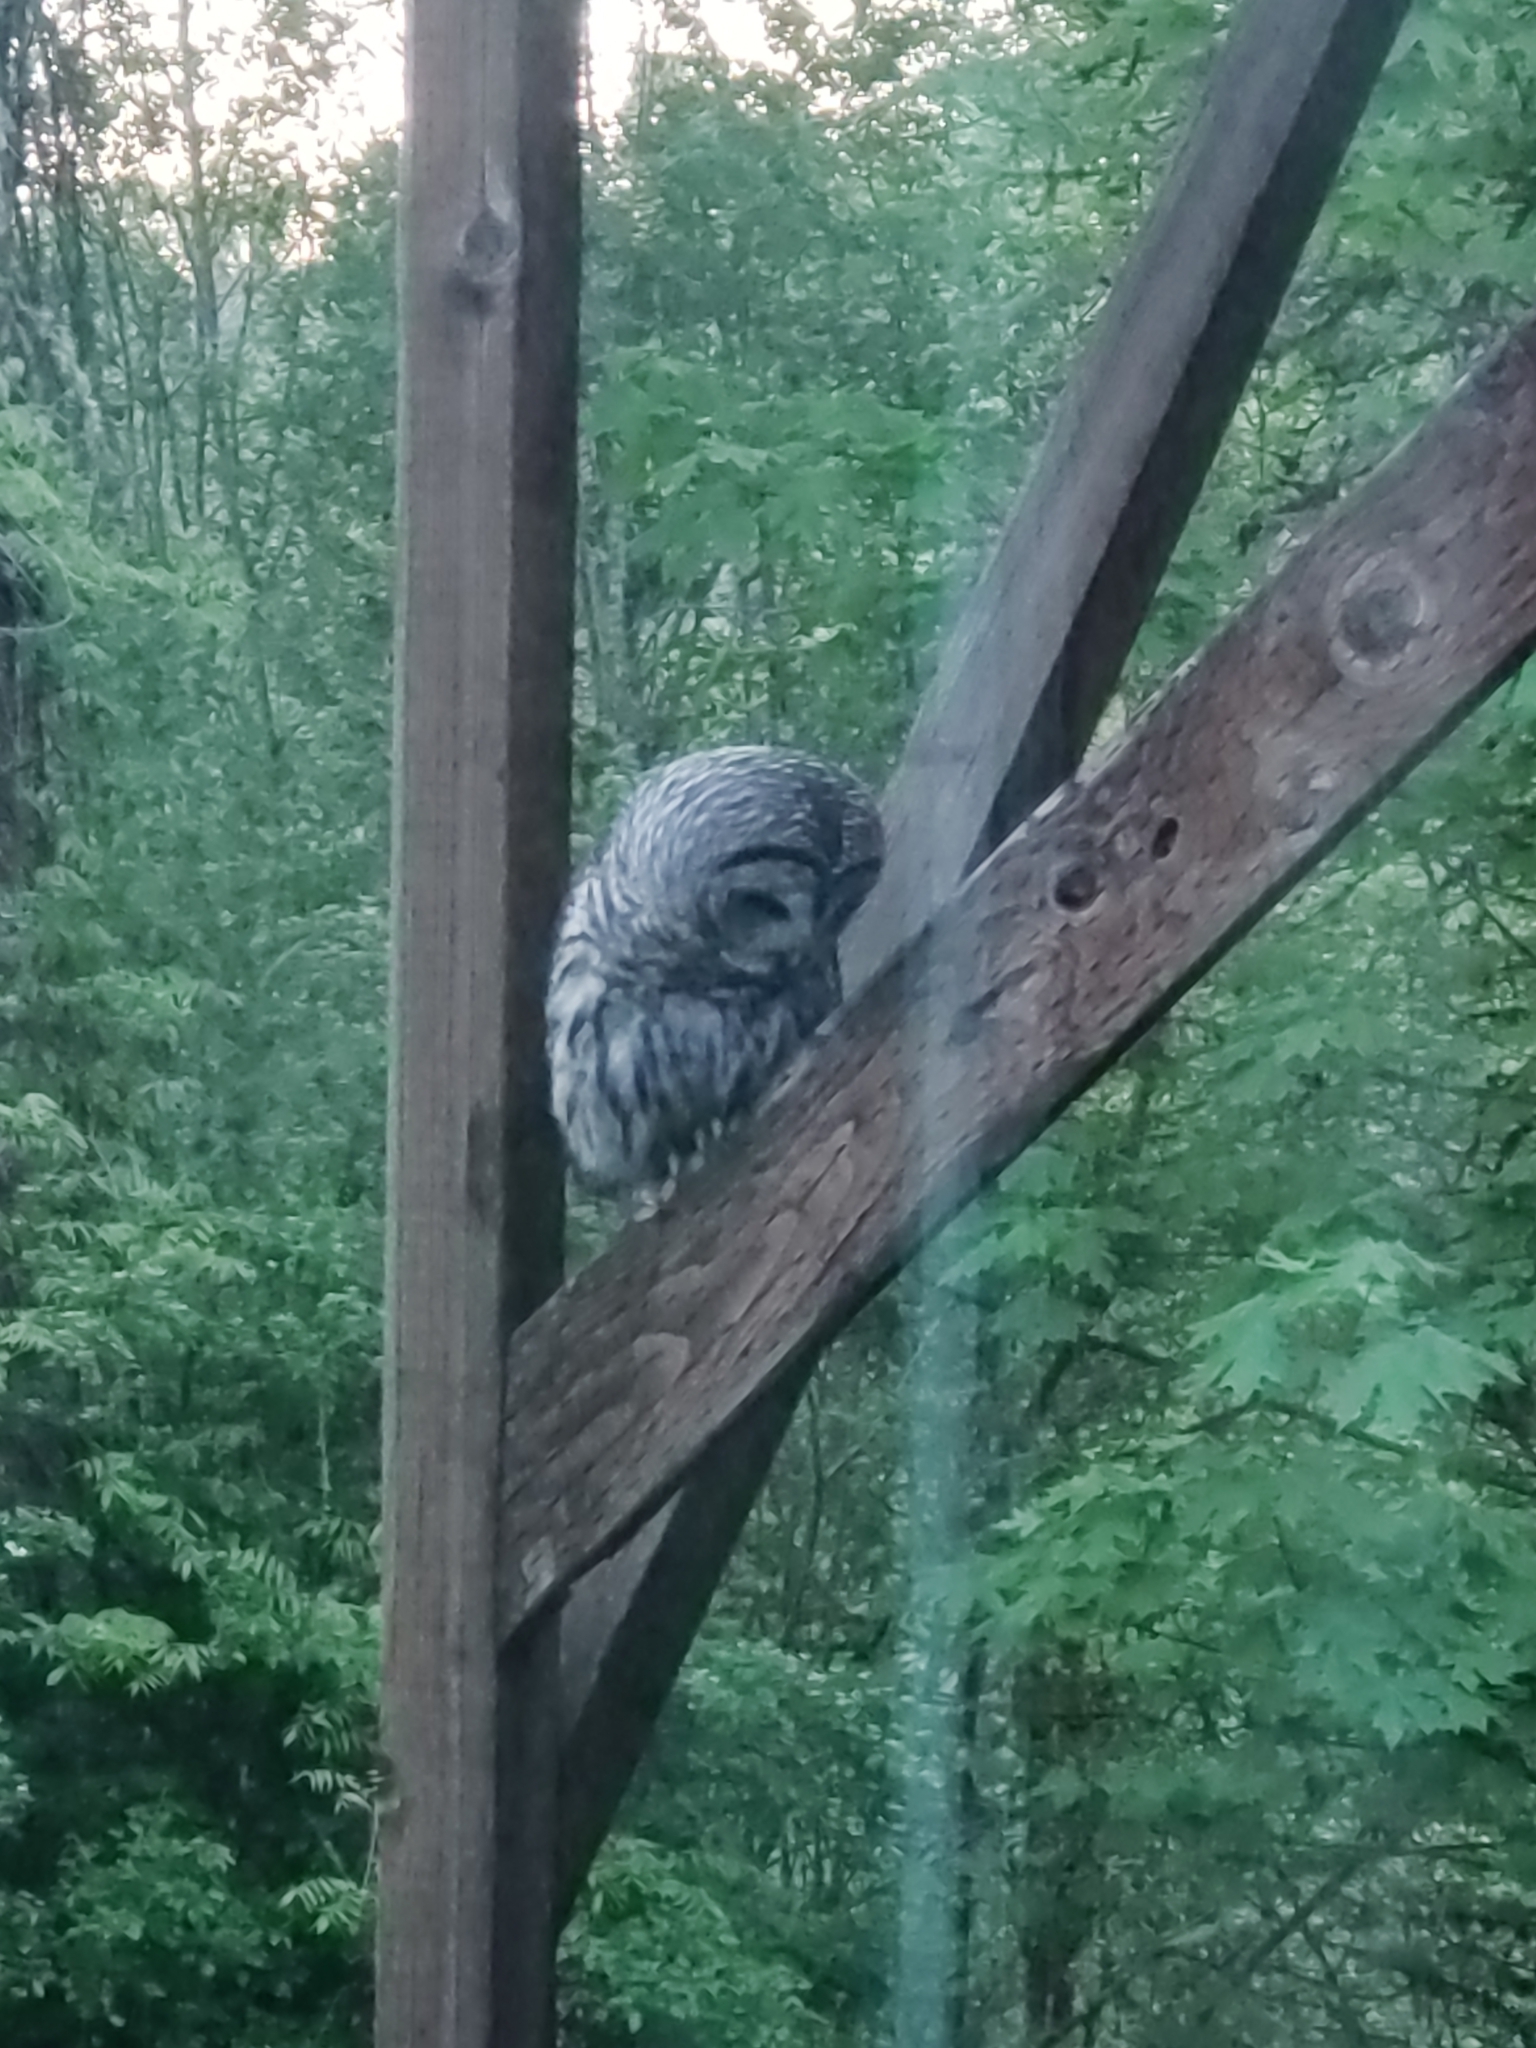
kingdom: Animalia
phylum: Chordata
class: Aves
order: Strigiformes
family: Strigidae
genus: Strix
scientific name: Strix varia
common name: Barred owl
